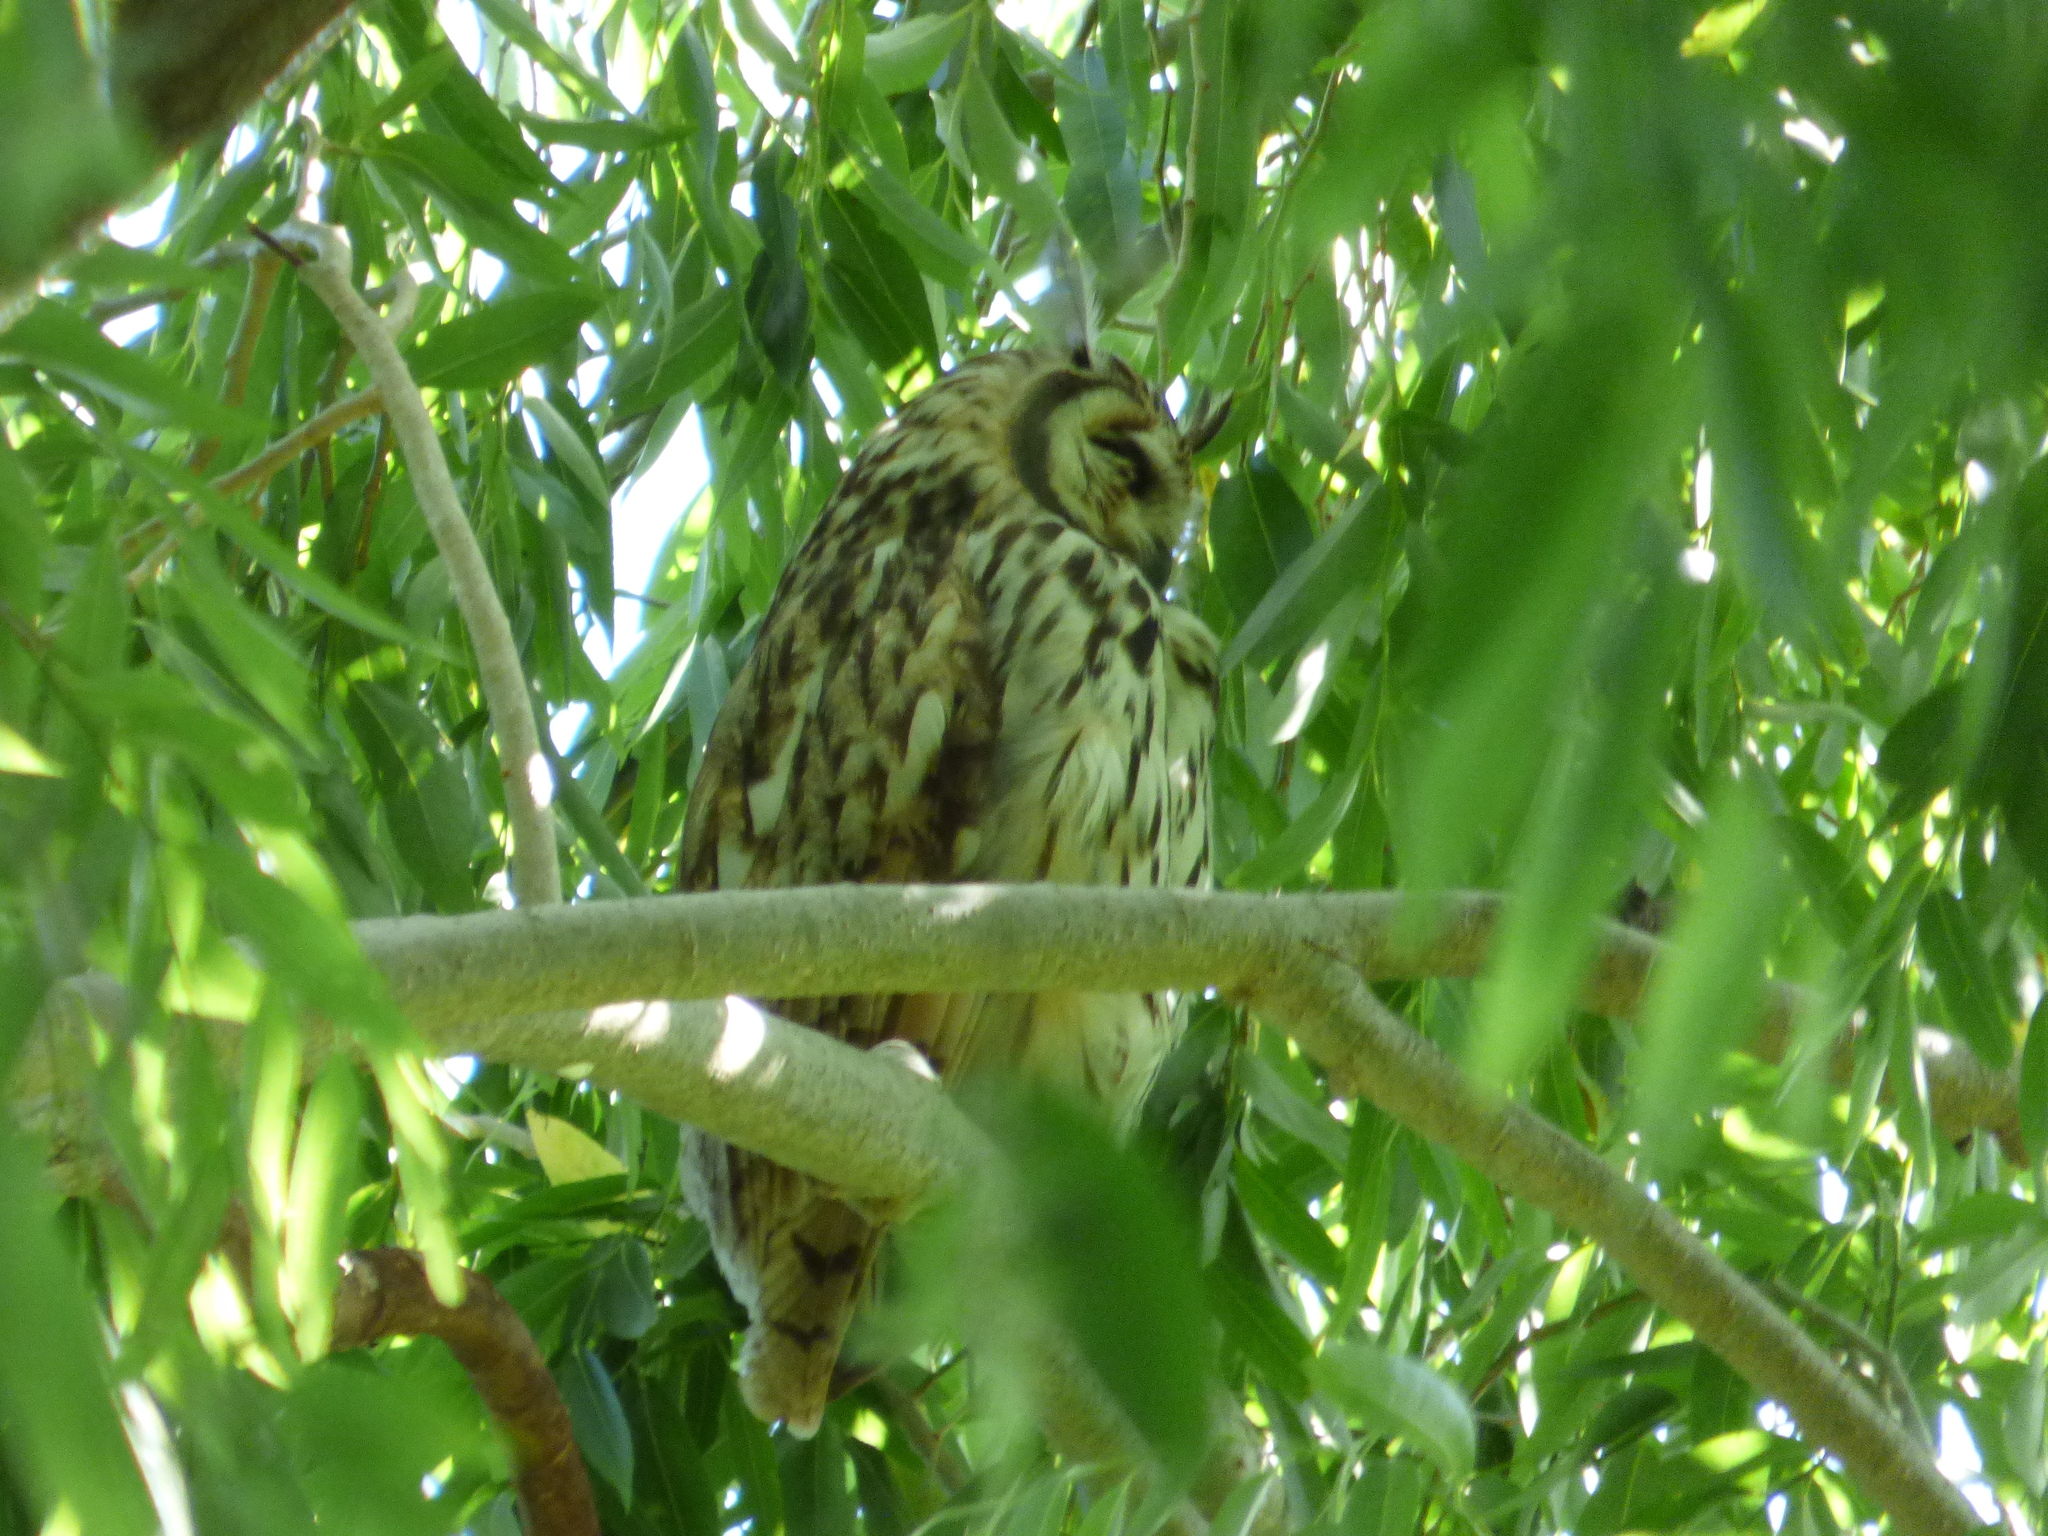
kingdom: Animalia
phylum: Chordata
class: Aves
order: Strigiformes
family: Strigidae
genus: Pseudoscops
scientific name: Pseudoscops clamator
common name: Striped owl
